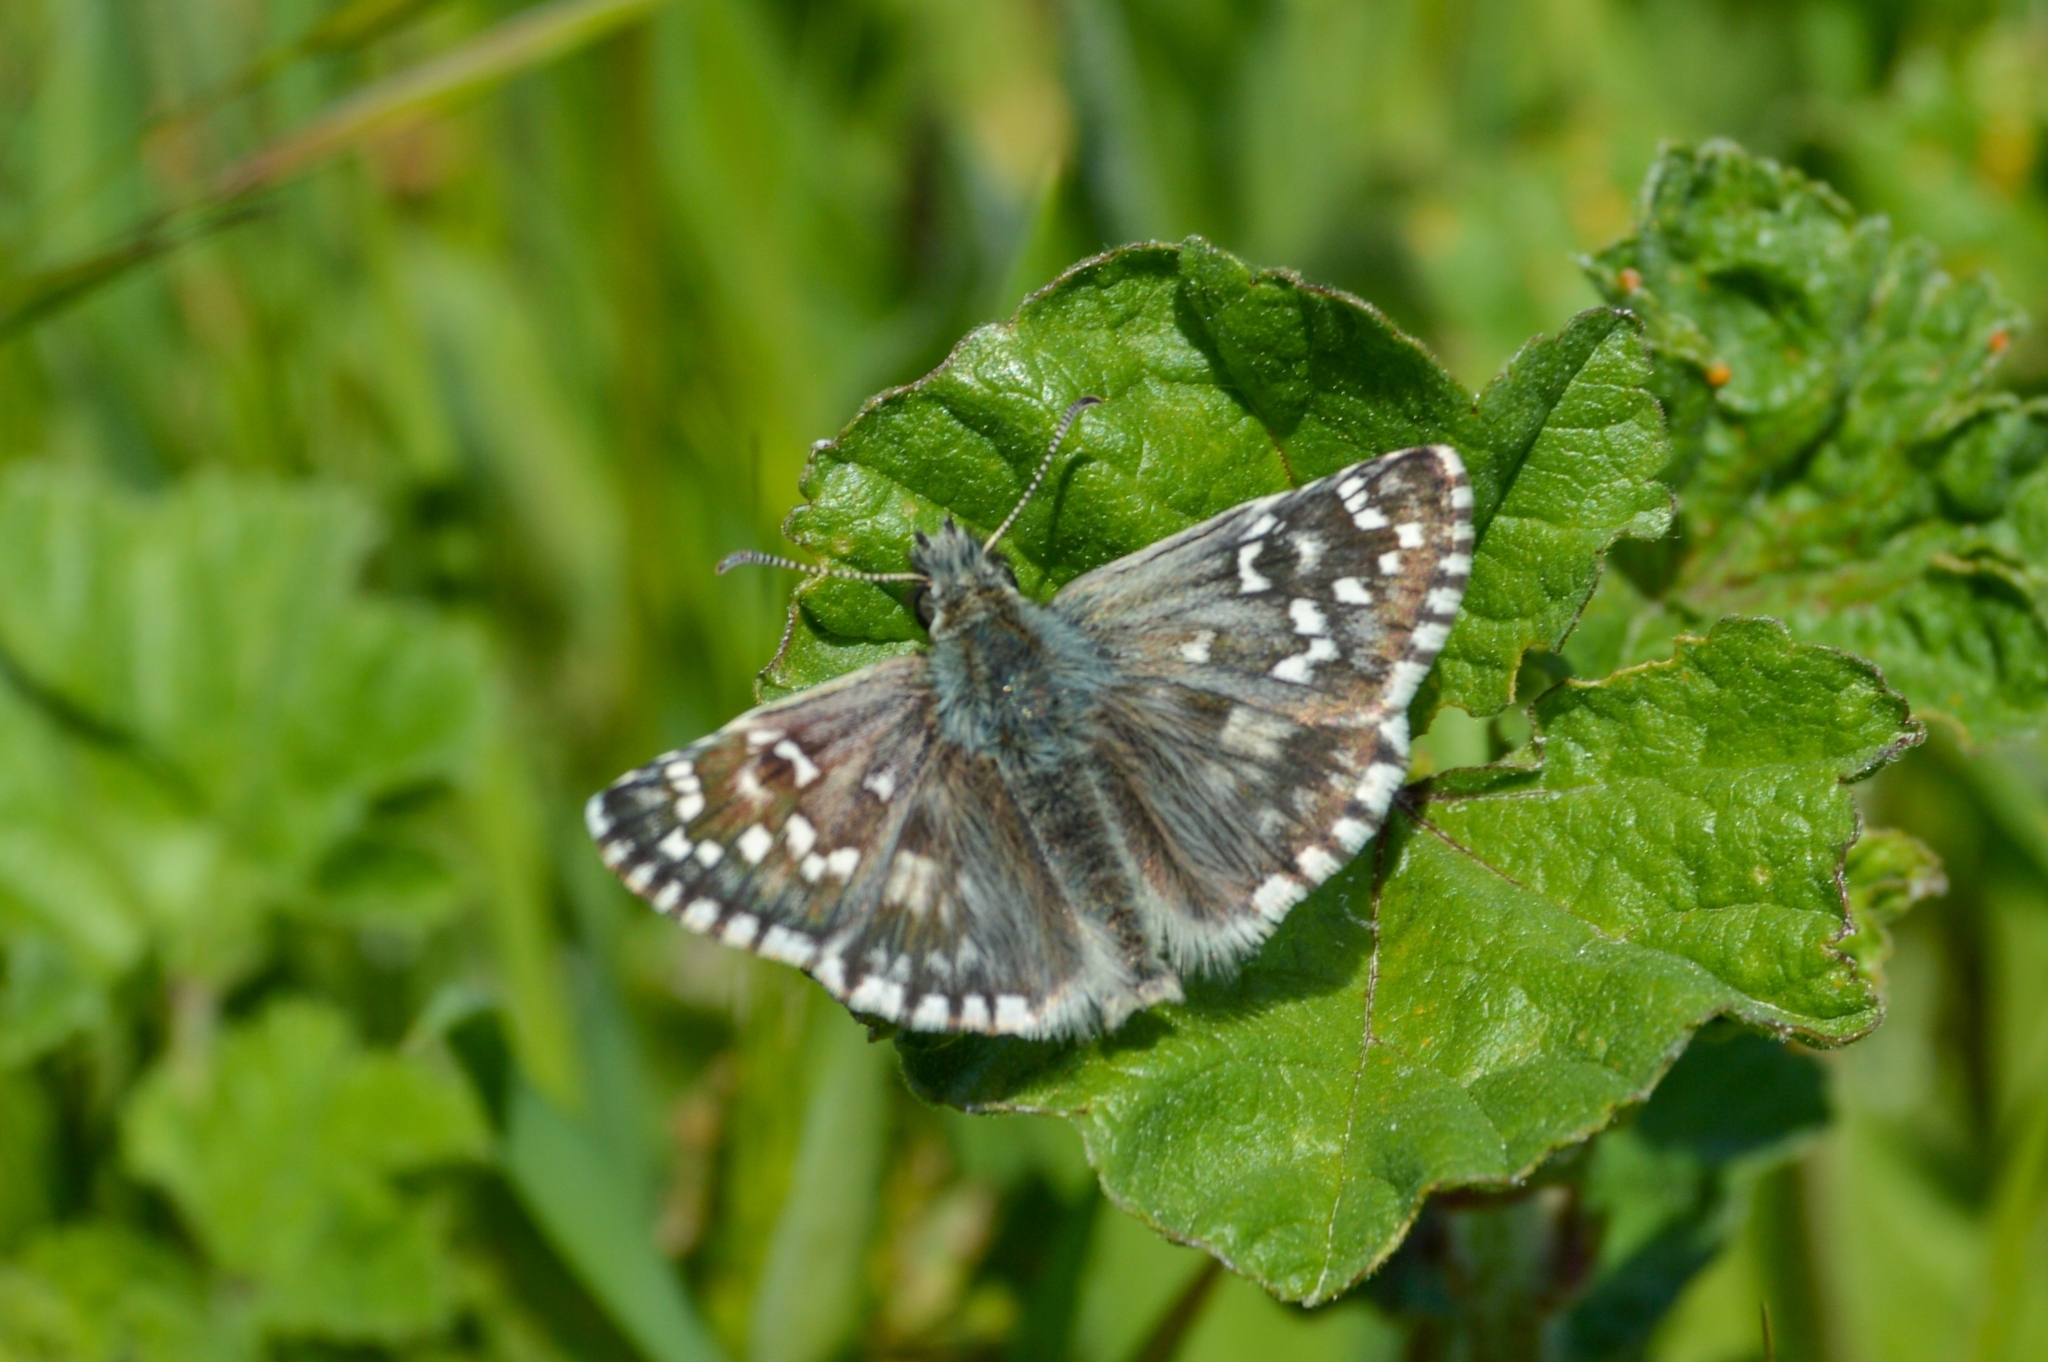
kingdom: Animalia
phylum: Arthropoda
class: Insecta
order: Lepidoptera
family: Hesperiidae
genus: Pyrgus
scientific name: Pyrgus armoricanus
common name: Oberthür's grizzled skipper
